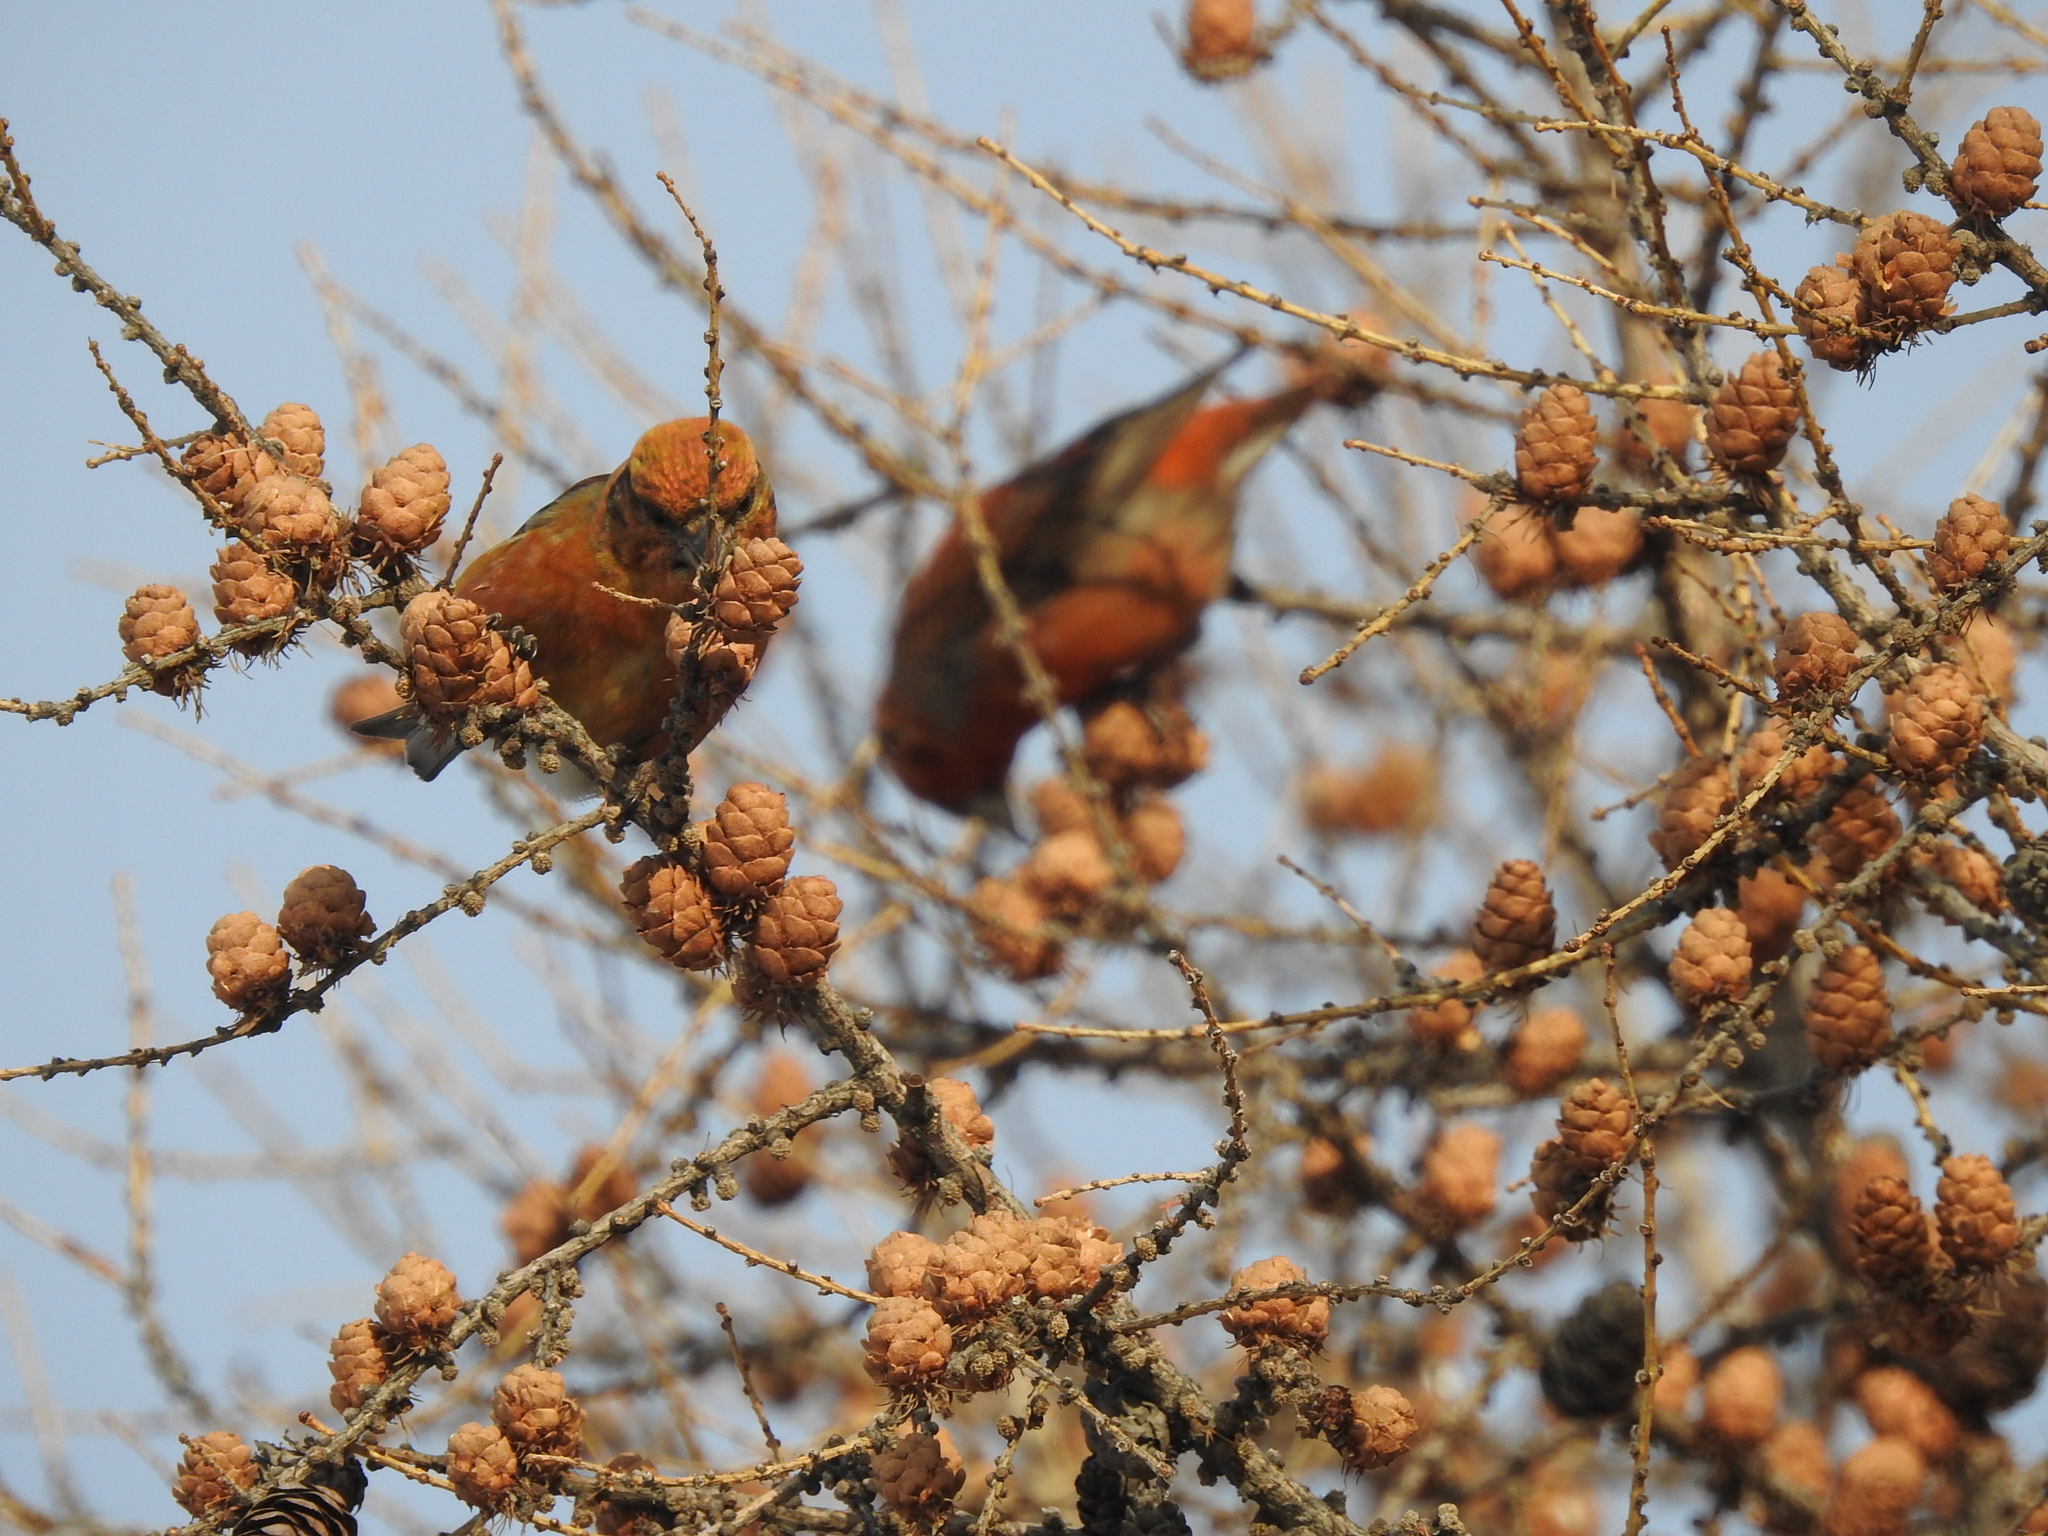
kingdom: Animalia
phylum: Chordata
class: Aves
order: Passeriformes
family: Fringillidae
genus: Loxia
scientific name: Loxia curvirostra
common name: Red crossbill
